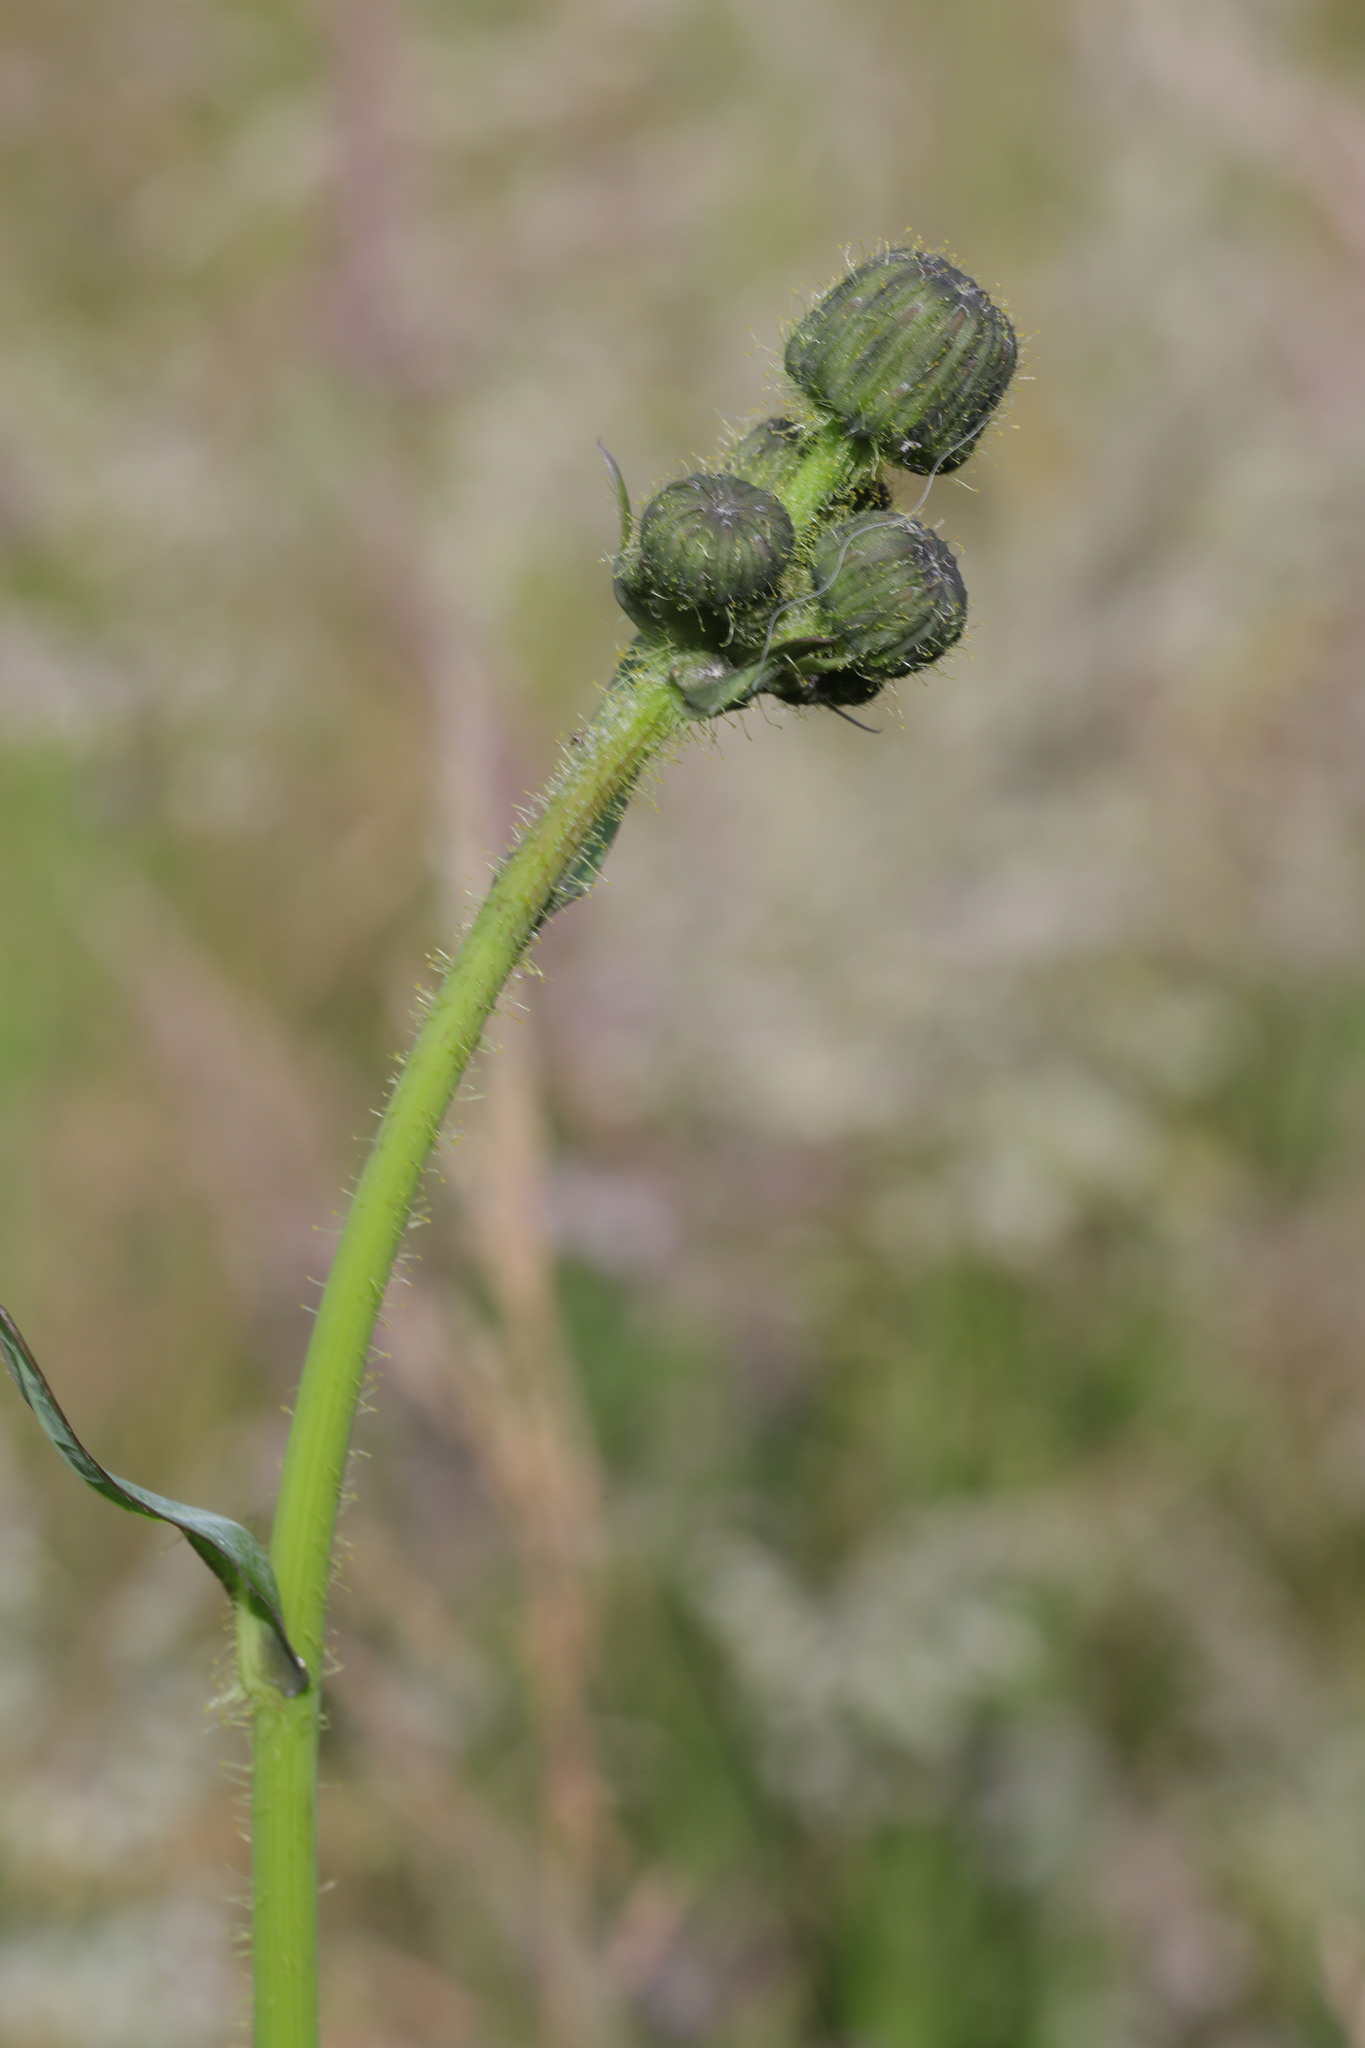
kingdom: Plantae
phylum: Tracheophyta
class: Magnoliopsida
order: Asterales
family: Asteraceae
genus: Sonchus
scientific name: Sonchus arvensis
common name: Perennial sow-thistle
